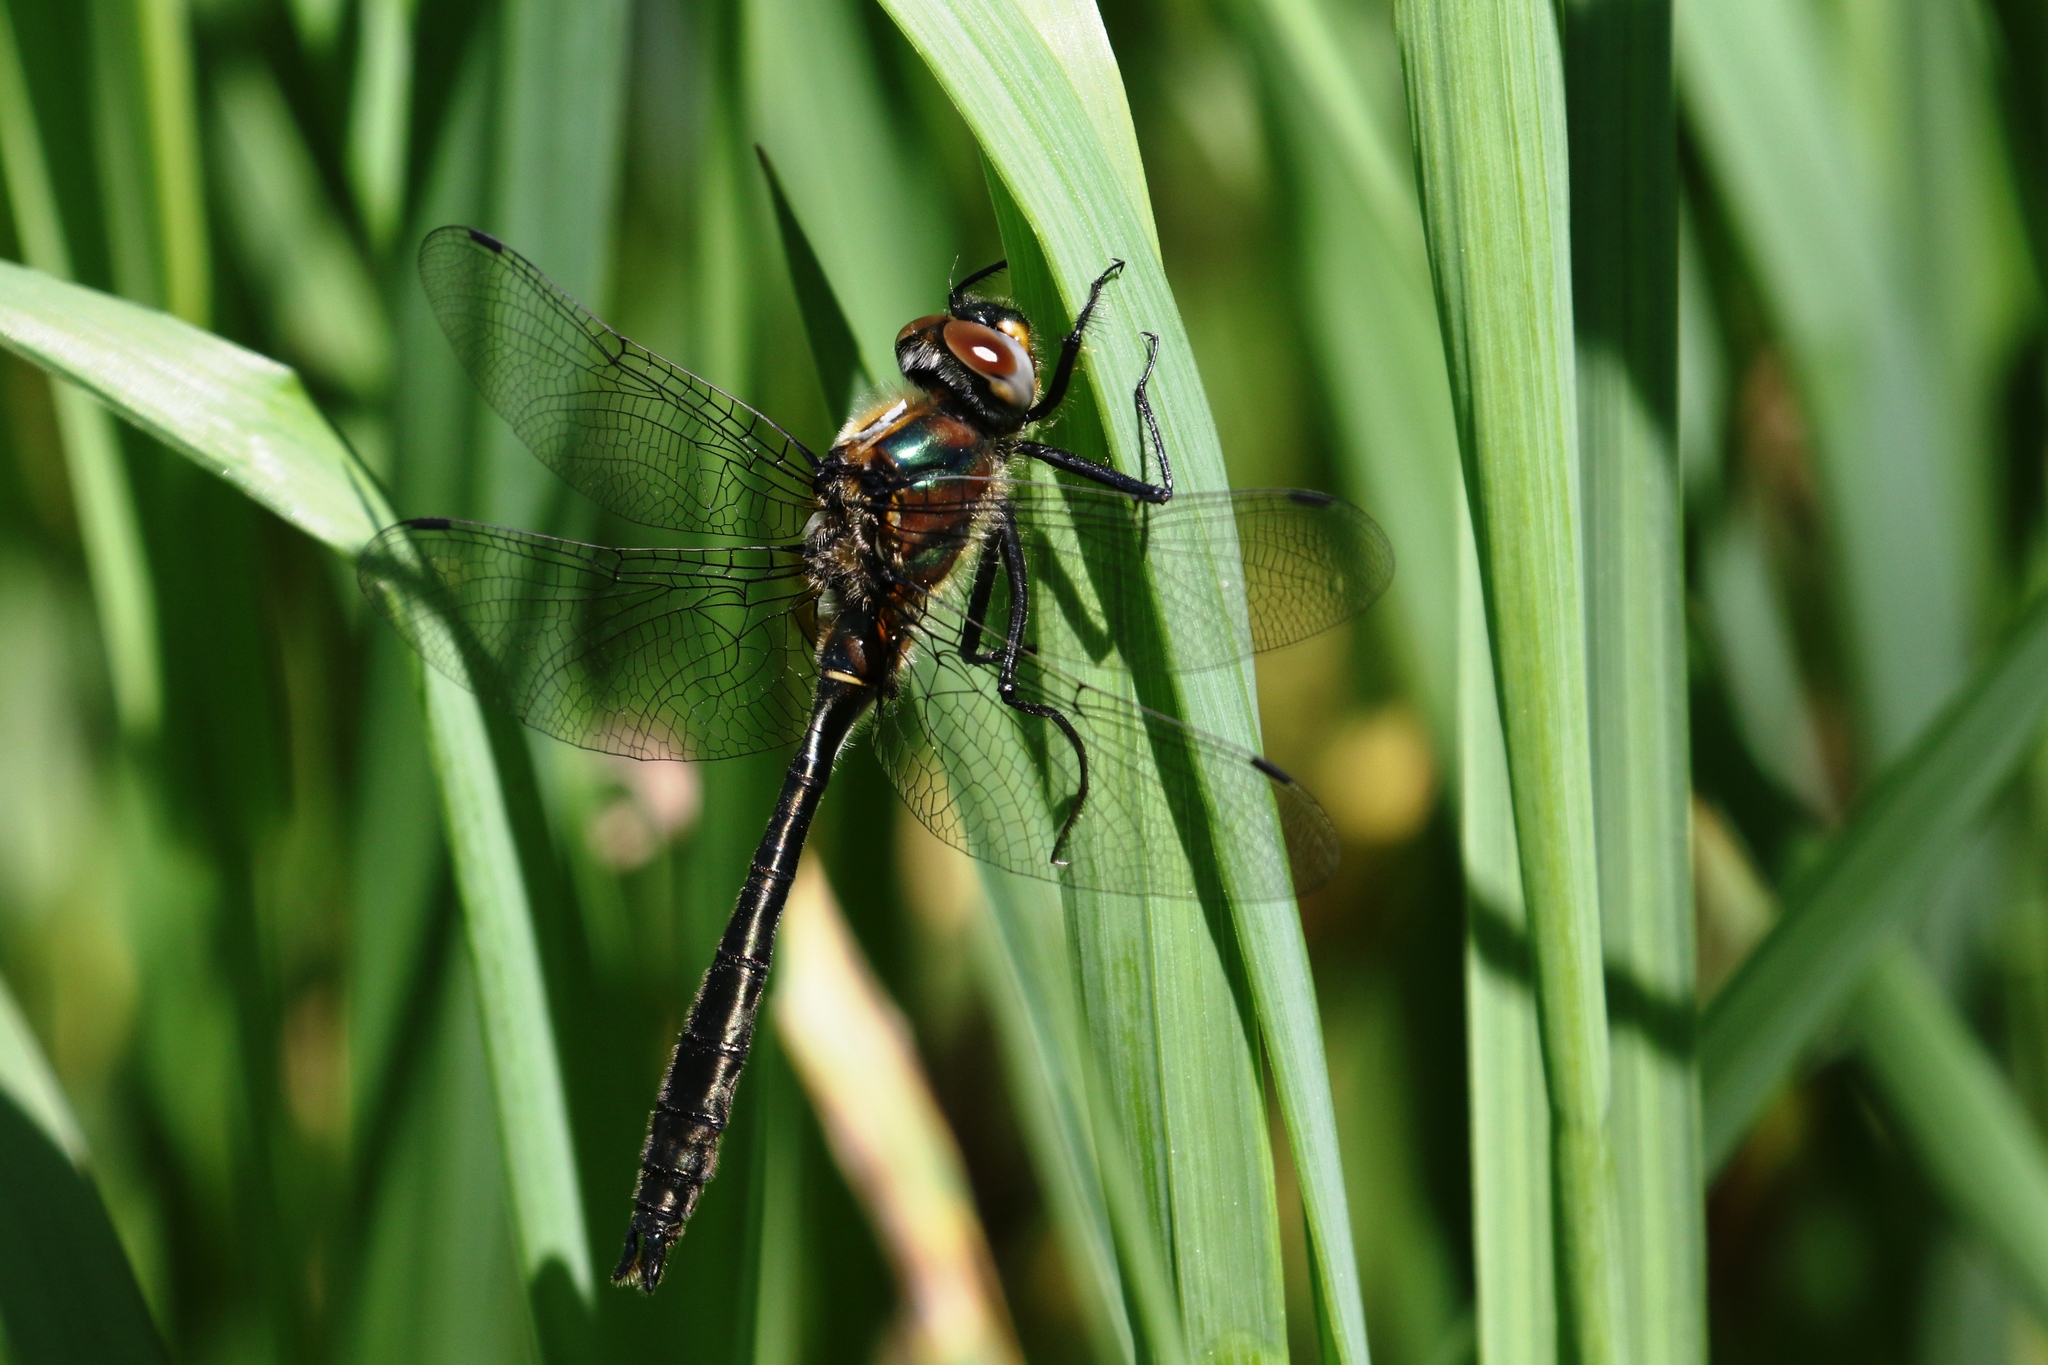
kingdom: Animalia
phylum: Arthropoda
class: Insecta
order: Odonata
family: Corduliidae
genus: Cordulia
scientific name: Cordulia shurtleffii
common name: American emerald
